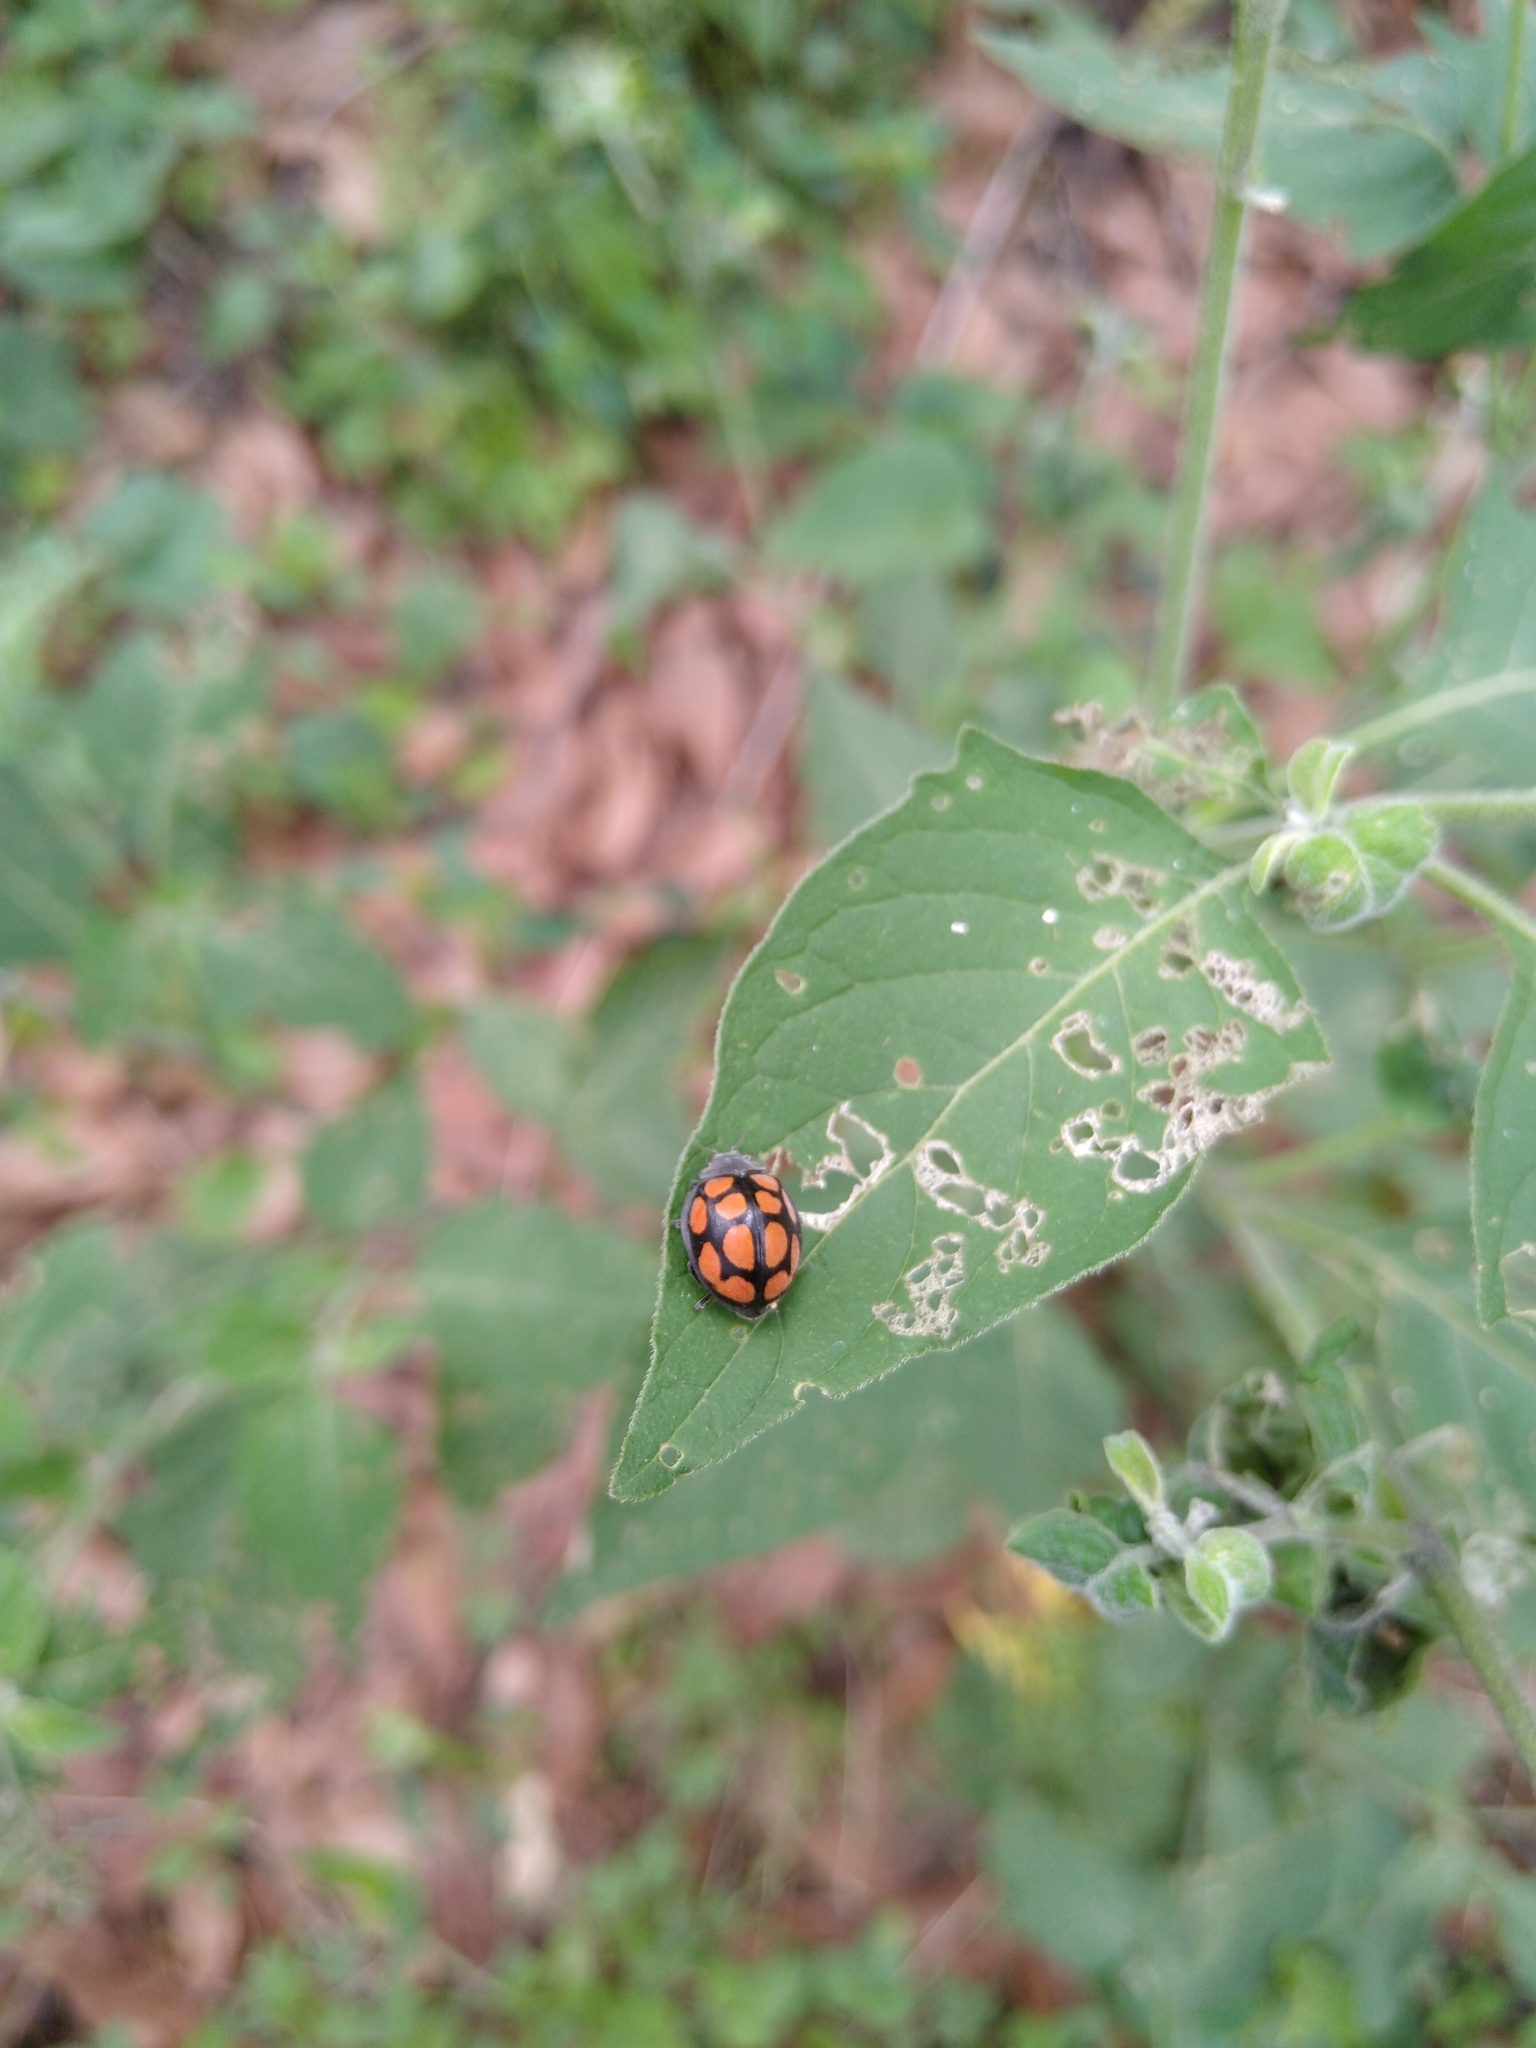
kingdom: Animalia
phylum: Arthropoda
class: Insecta
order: Coleoptera
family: Coccinellidae
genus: Epilachna
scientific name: Epilachna
